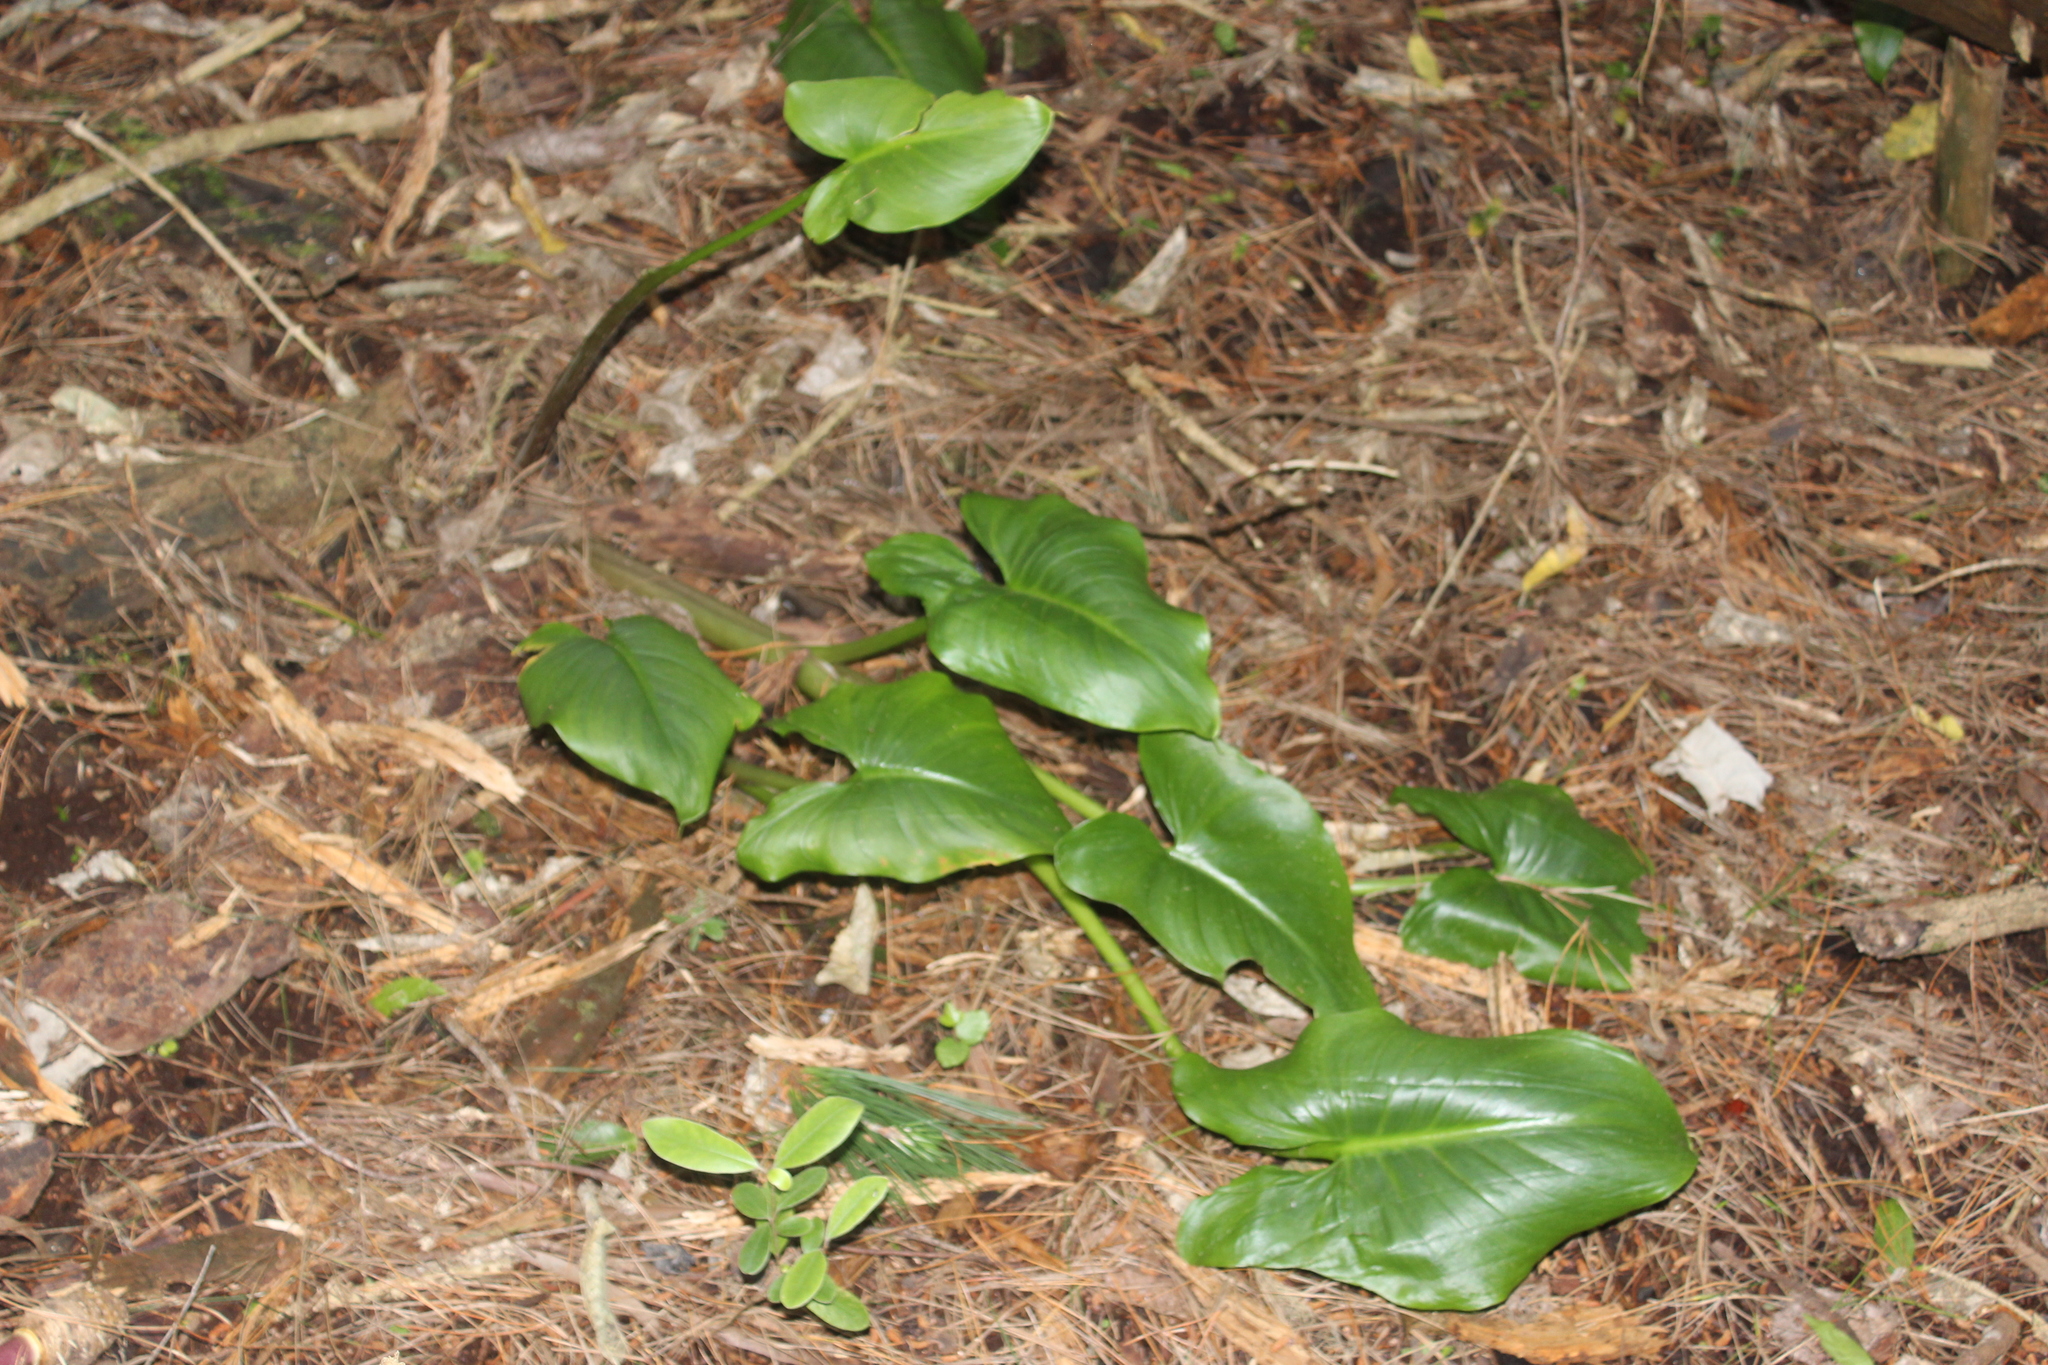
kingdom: Plantae
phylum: Tracheophyta
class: Liliopsida
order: Alismatales
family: Araceae
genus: Zantedeschia
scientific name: Zantedeschia aethiopica
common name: Altar-lily
